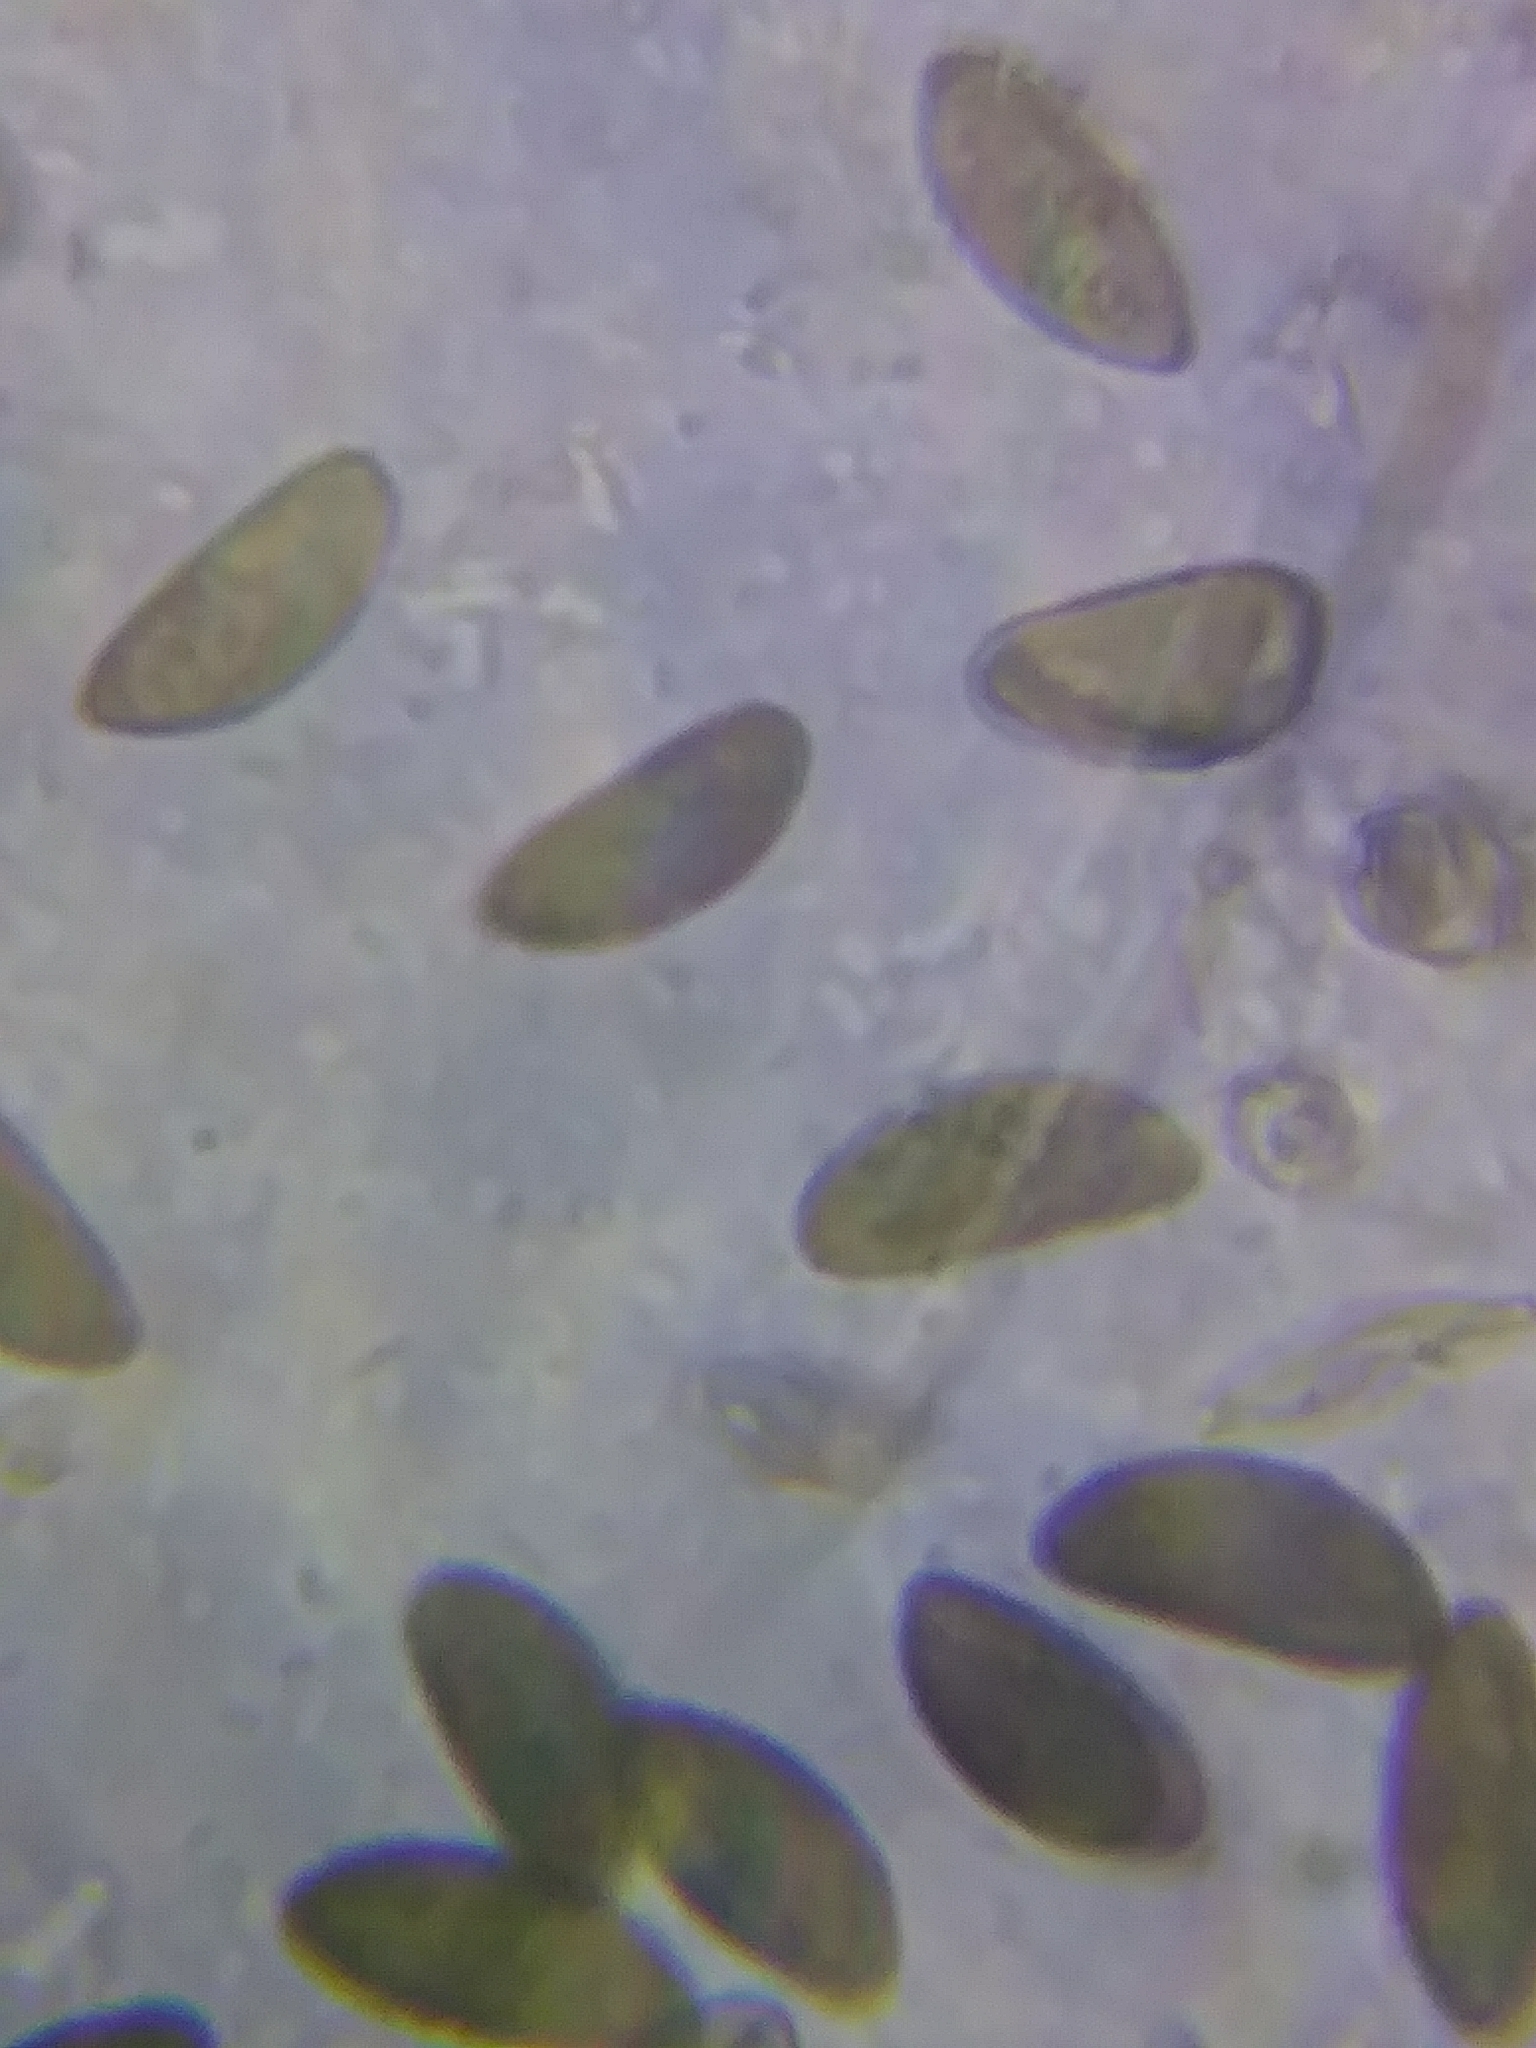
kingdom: Fungi
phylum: Ascomycota
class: Sordariomycetes
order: Xylariales
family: Xylariaceae
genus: Xylaria
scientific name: Xylaria polymorpha
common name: Dead man's fingers
